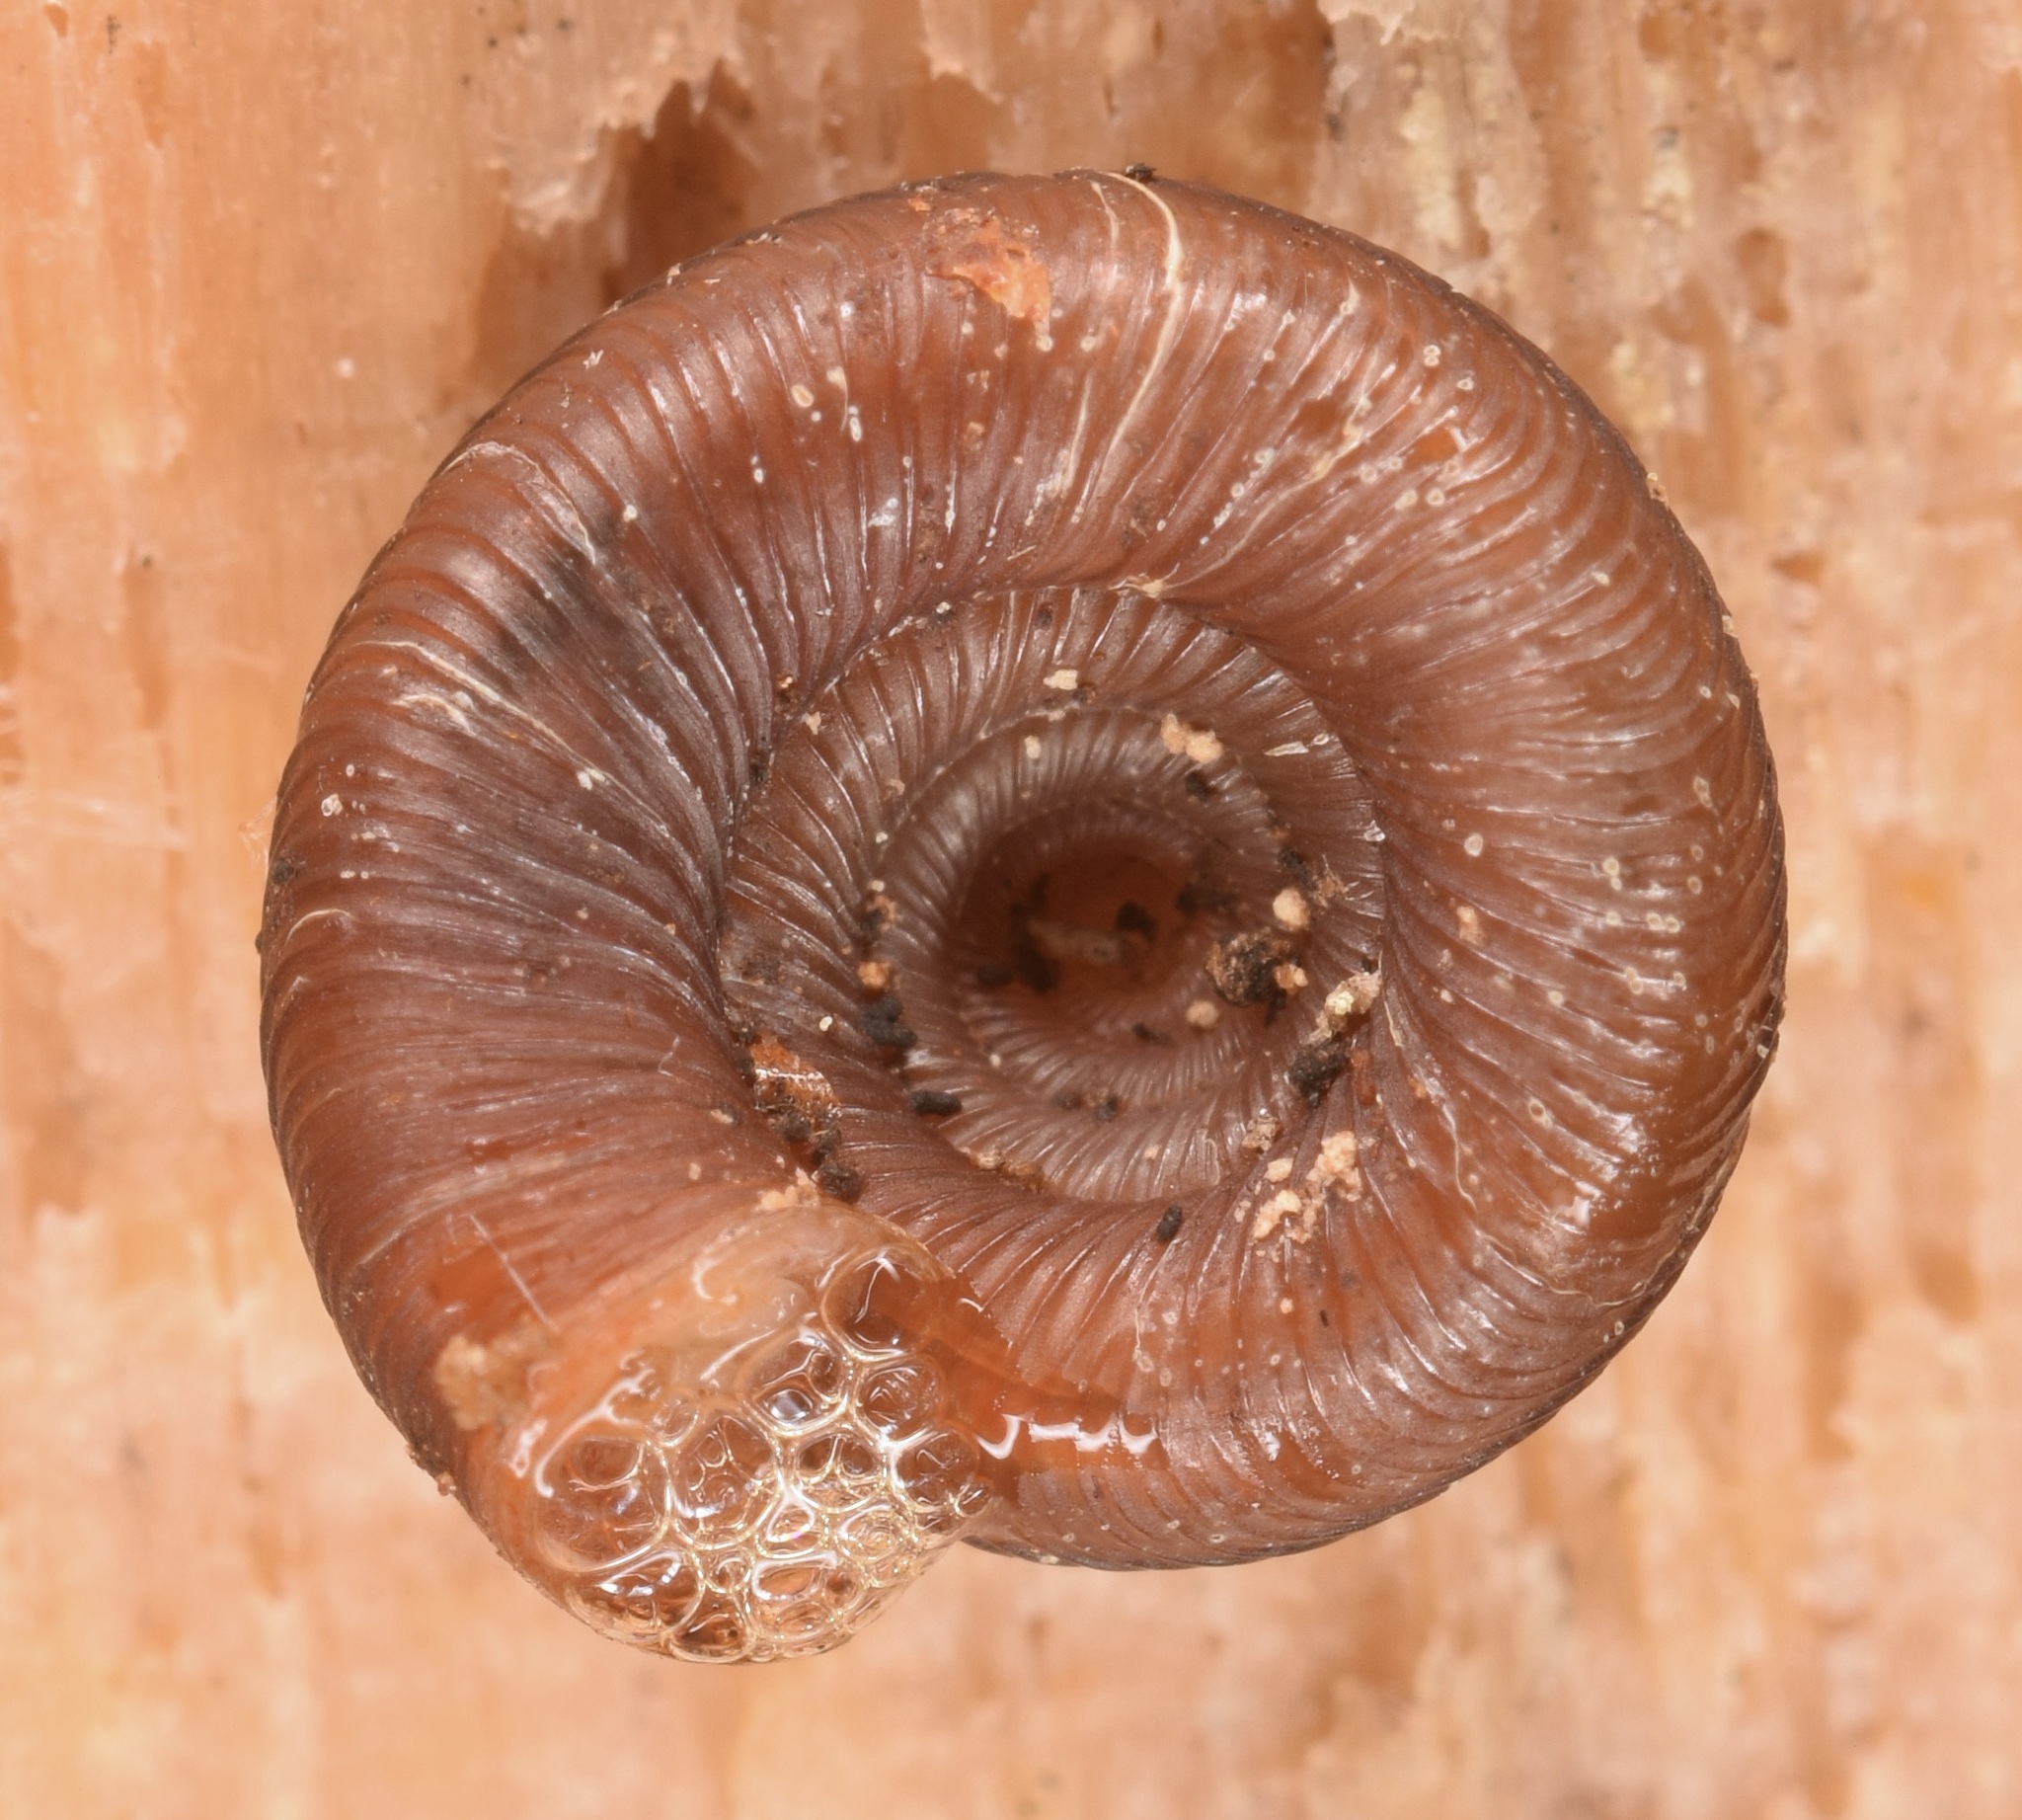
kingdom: Animalia
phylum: Mollusca
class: Gastropoda
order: Stylommatophora
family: Discidae
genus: Discus
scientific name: Discus patulus
